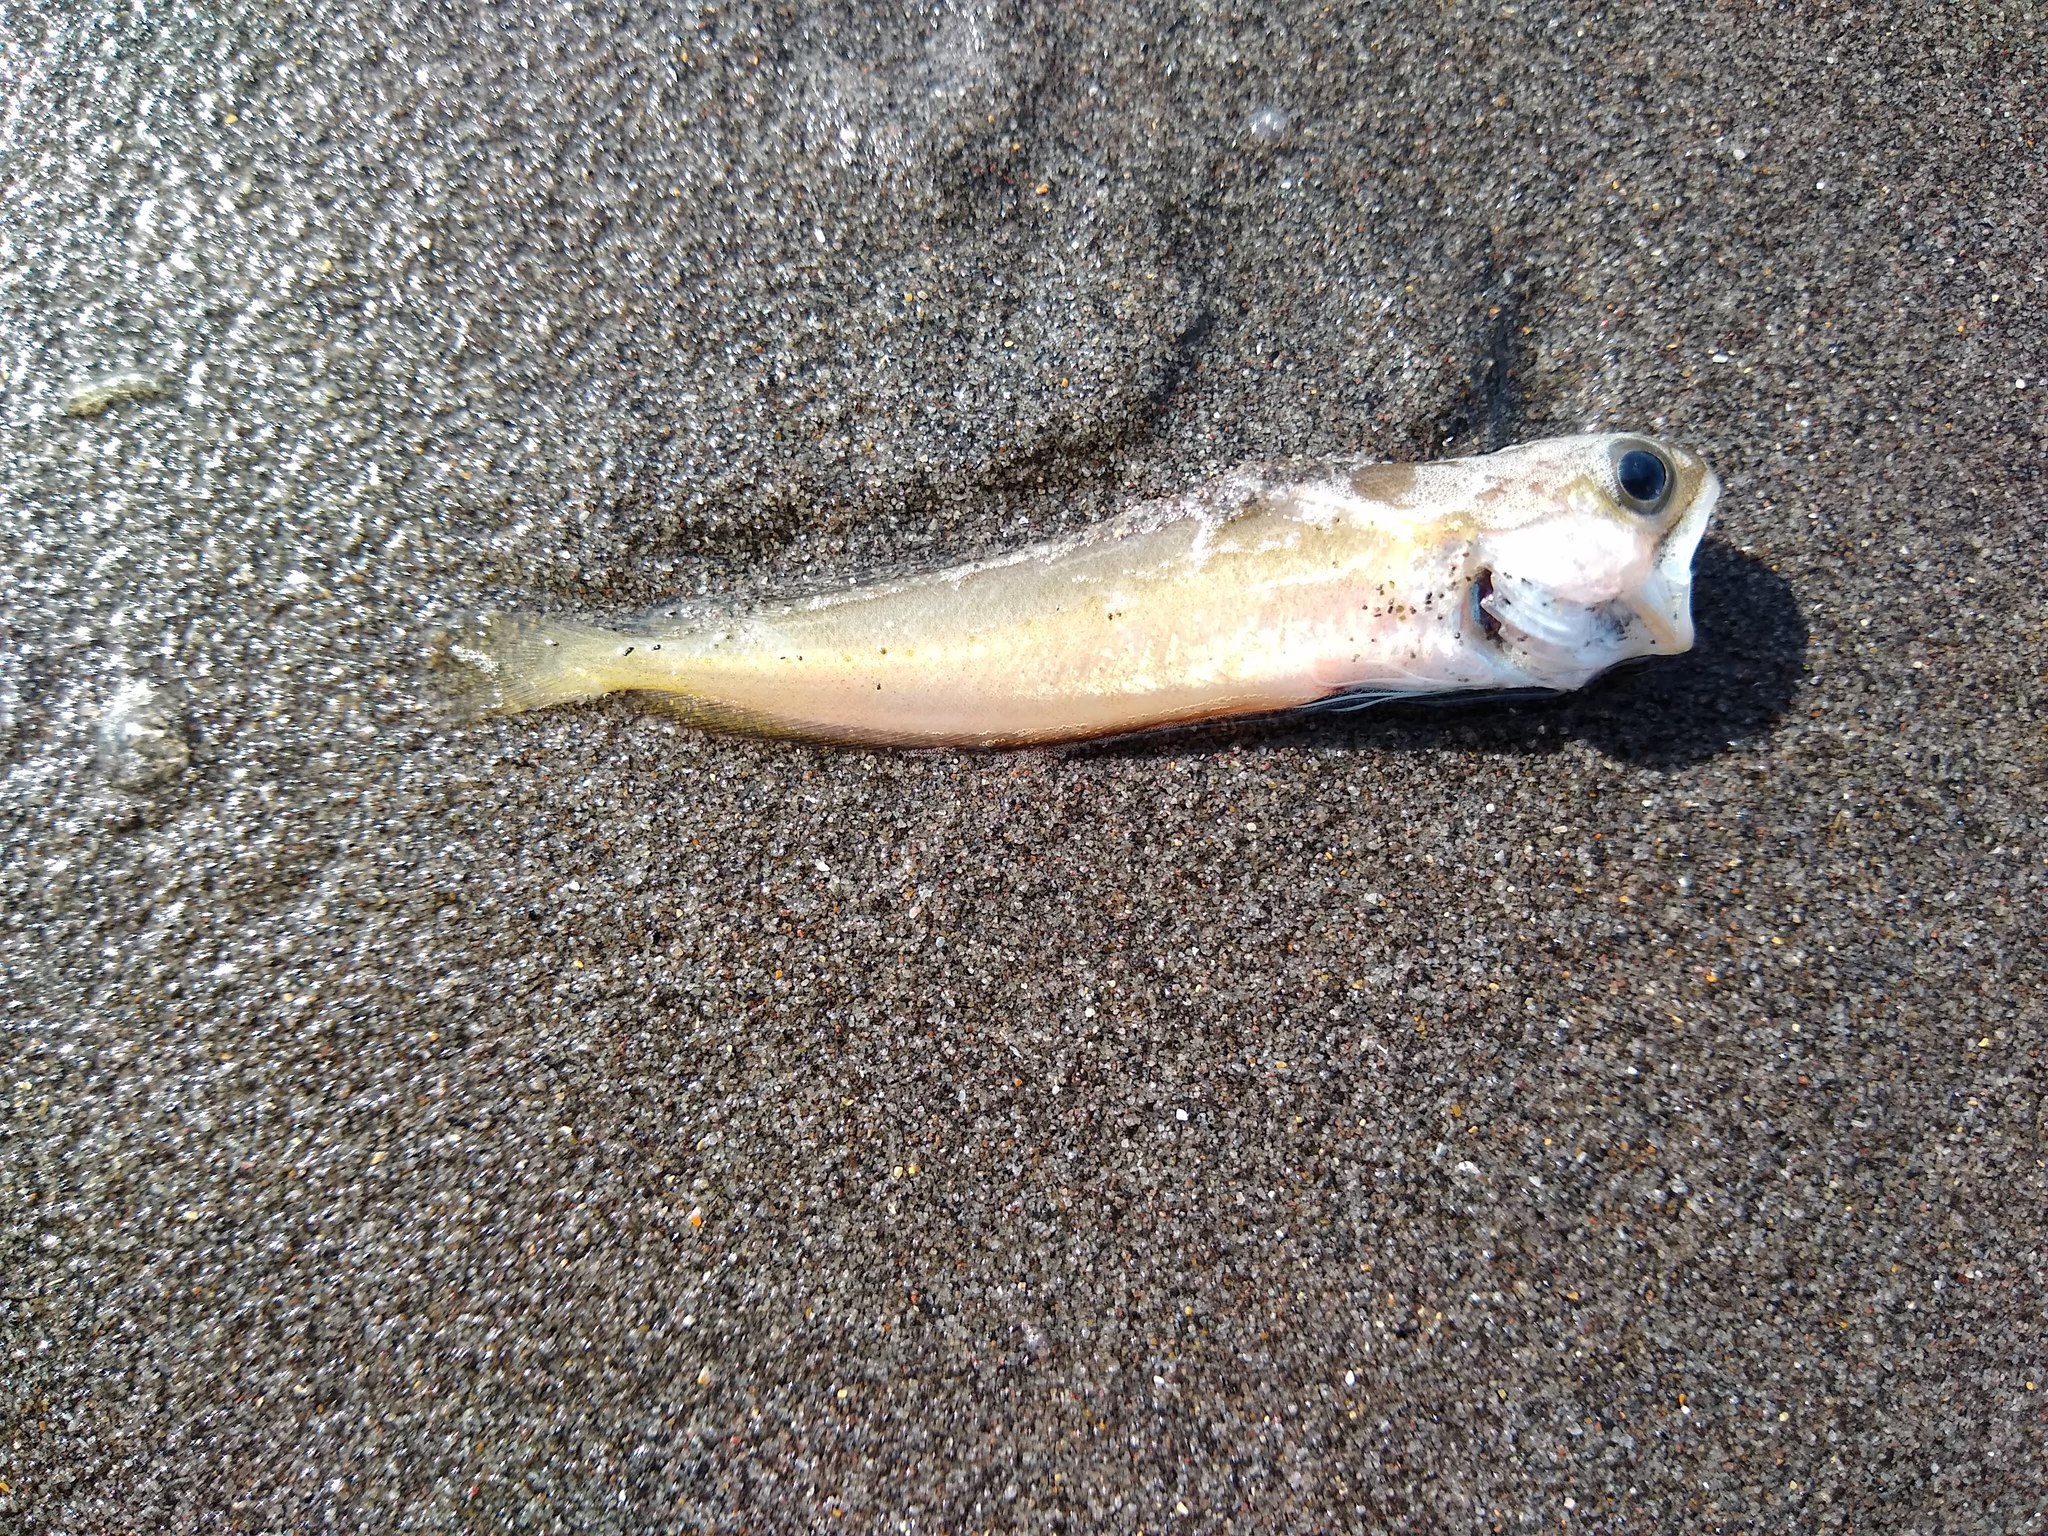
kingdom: Animalia
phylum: Chordata
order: Gadiformes
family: Moridae
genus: Pseudophycis
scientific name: Pseudophycis breviuscula
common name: Northern bastard codling
